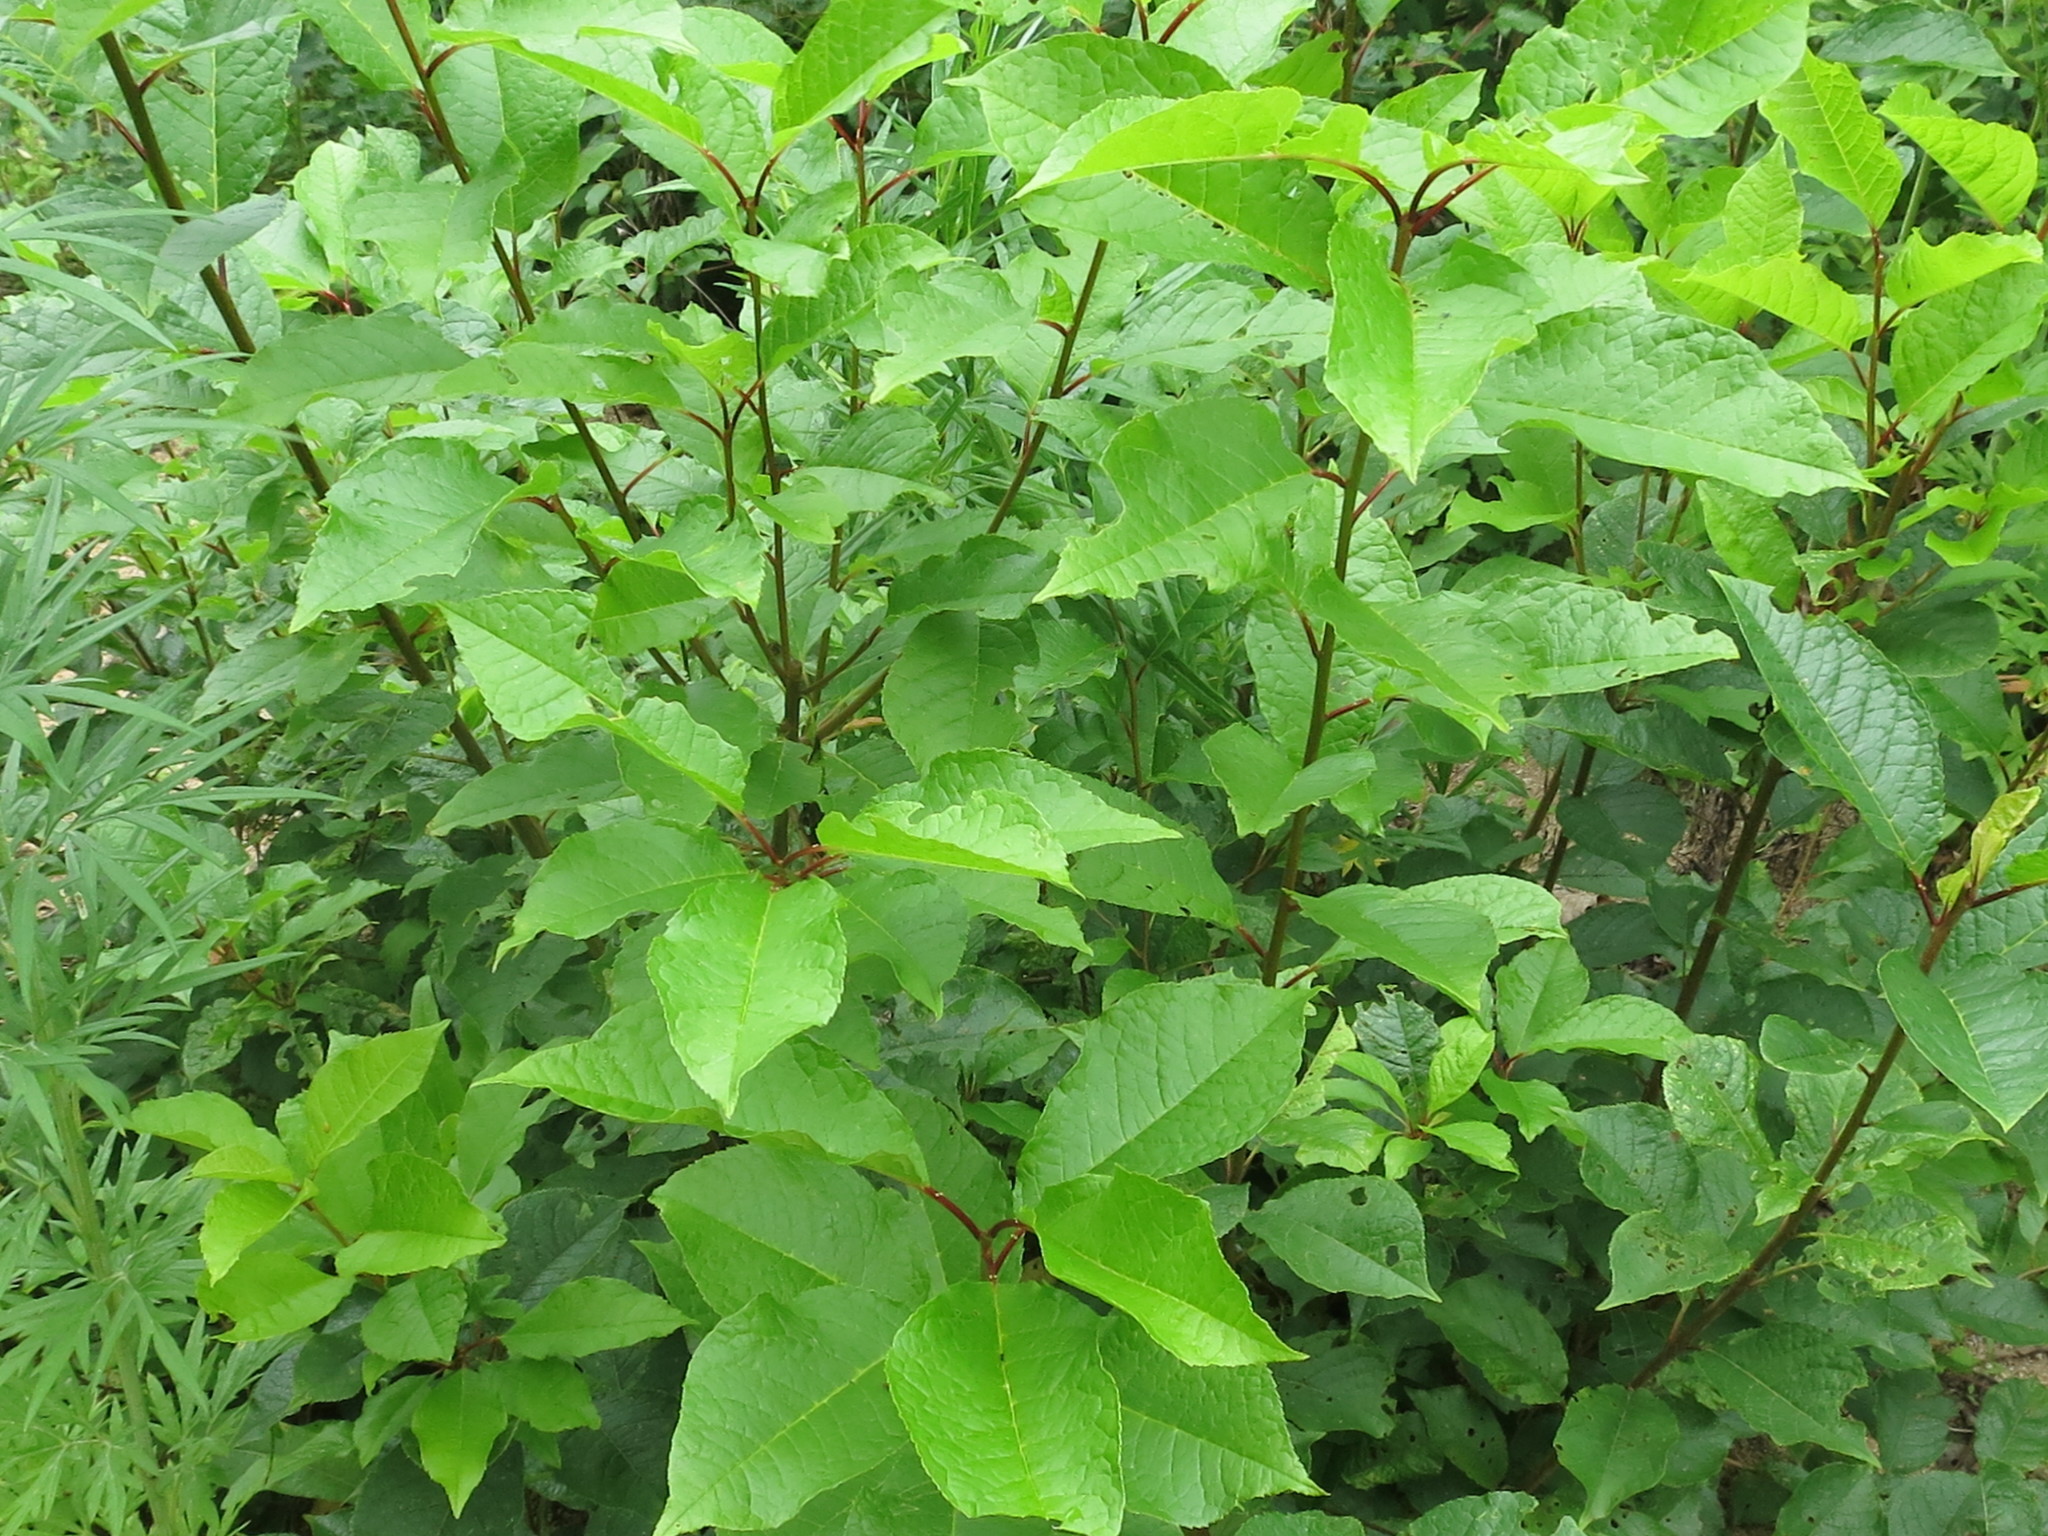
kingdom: Plantae
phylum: Tracheophyta
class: Magnoliopsida
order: Rosales
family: Rosaceae
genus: Prunus
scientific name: Prunus padus
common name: Bird cherry
